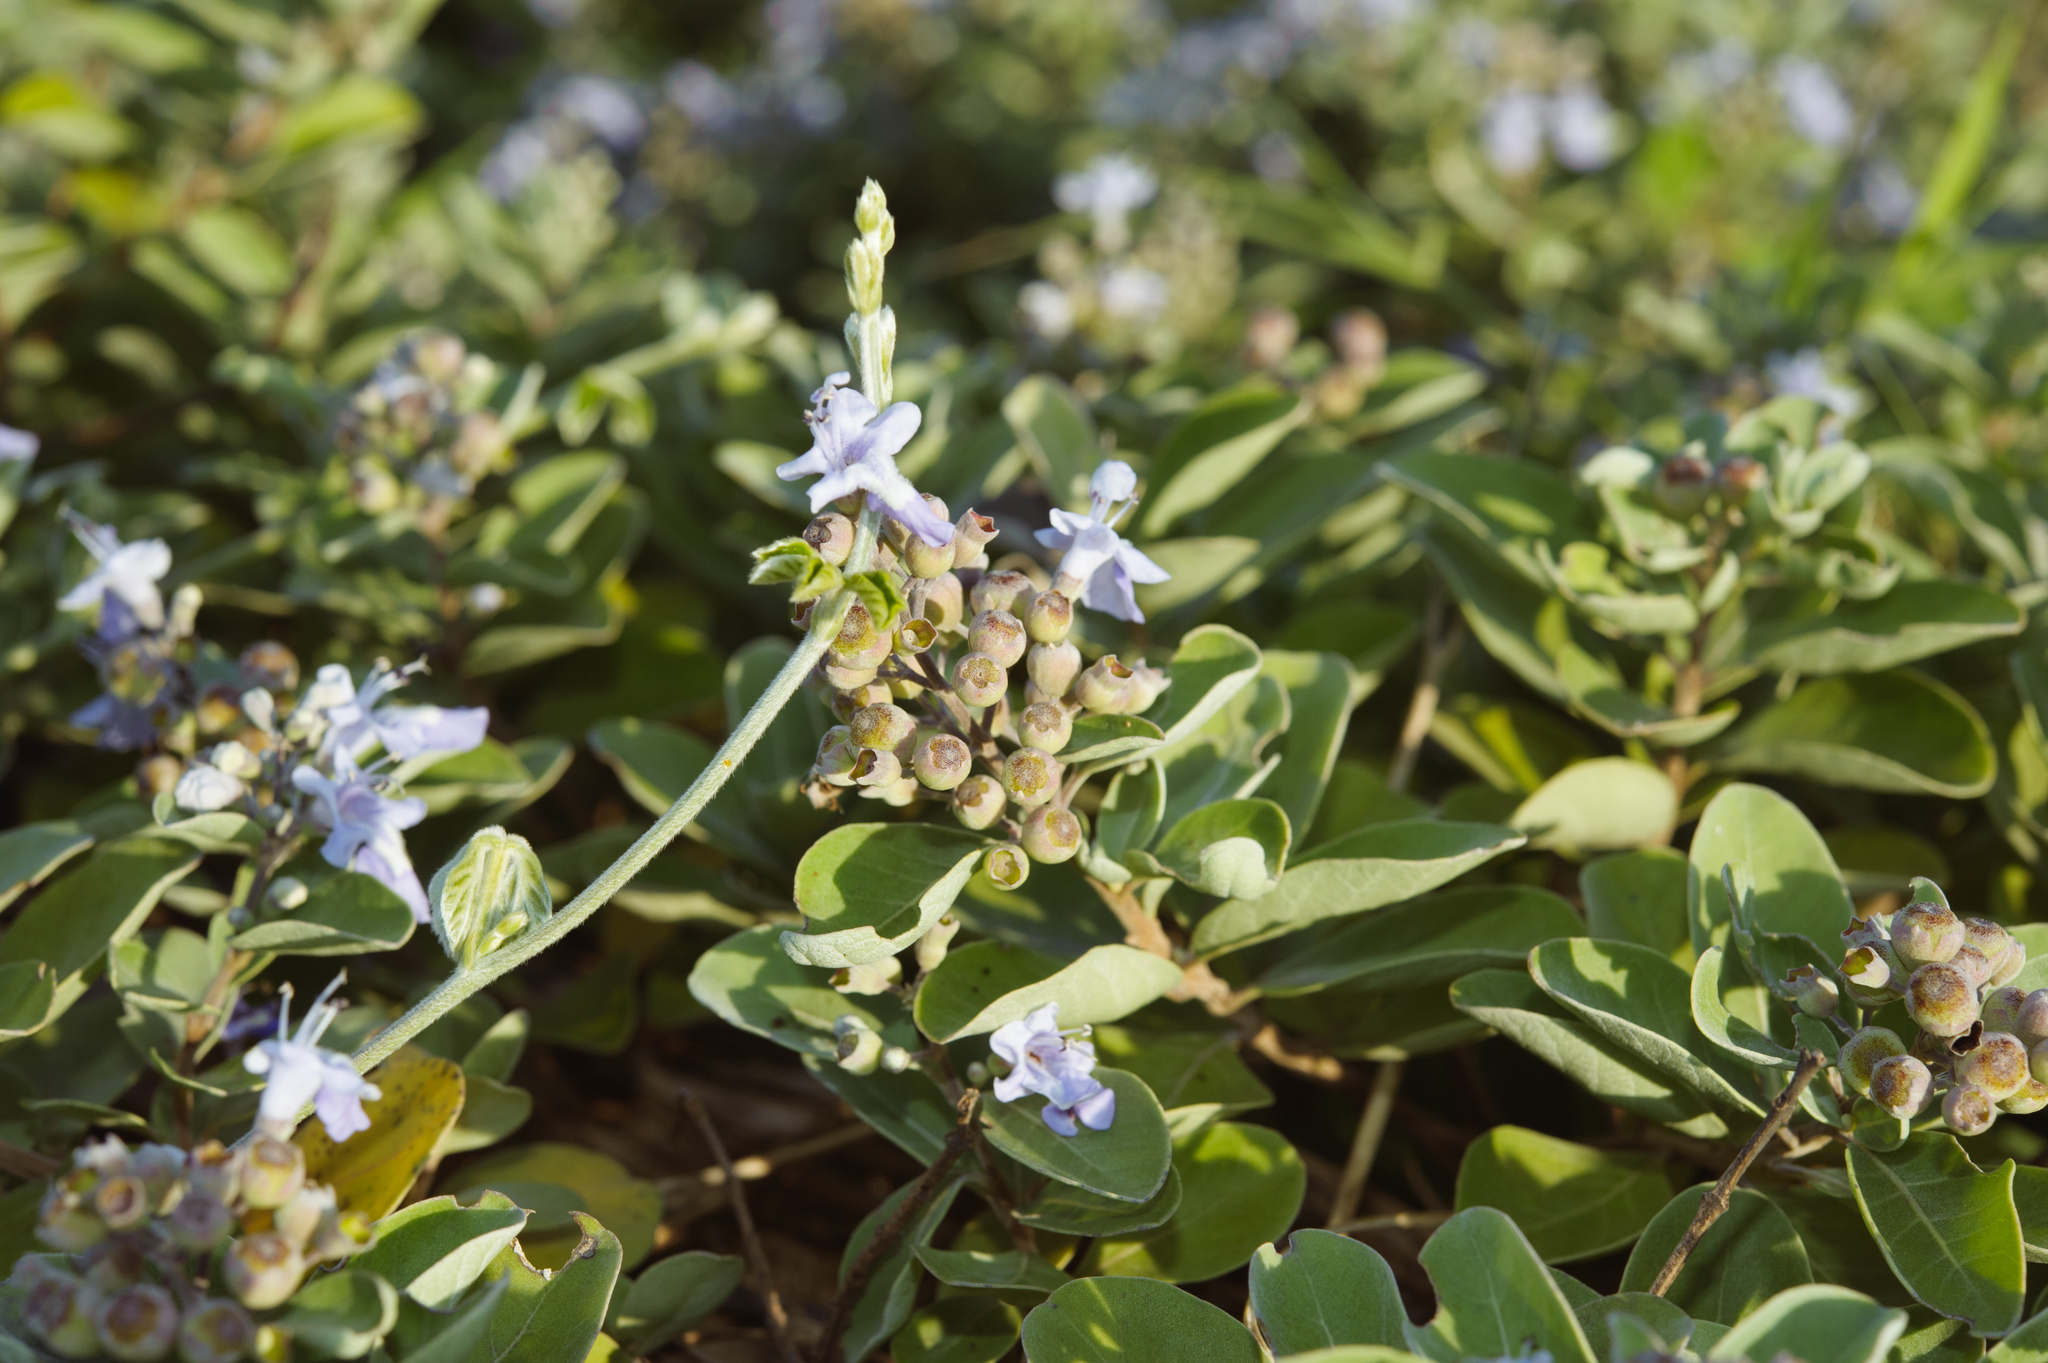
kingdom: Plantae
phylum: Tracheophyta
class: Magnoliopsida
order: Lamiales
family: Lamiaceae
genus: Vitex
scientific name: Vitex rotundifolia
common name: Beach vitex
